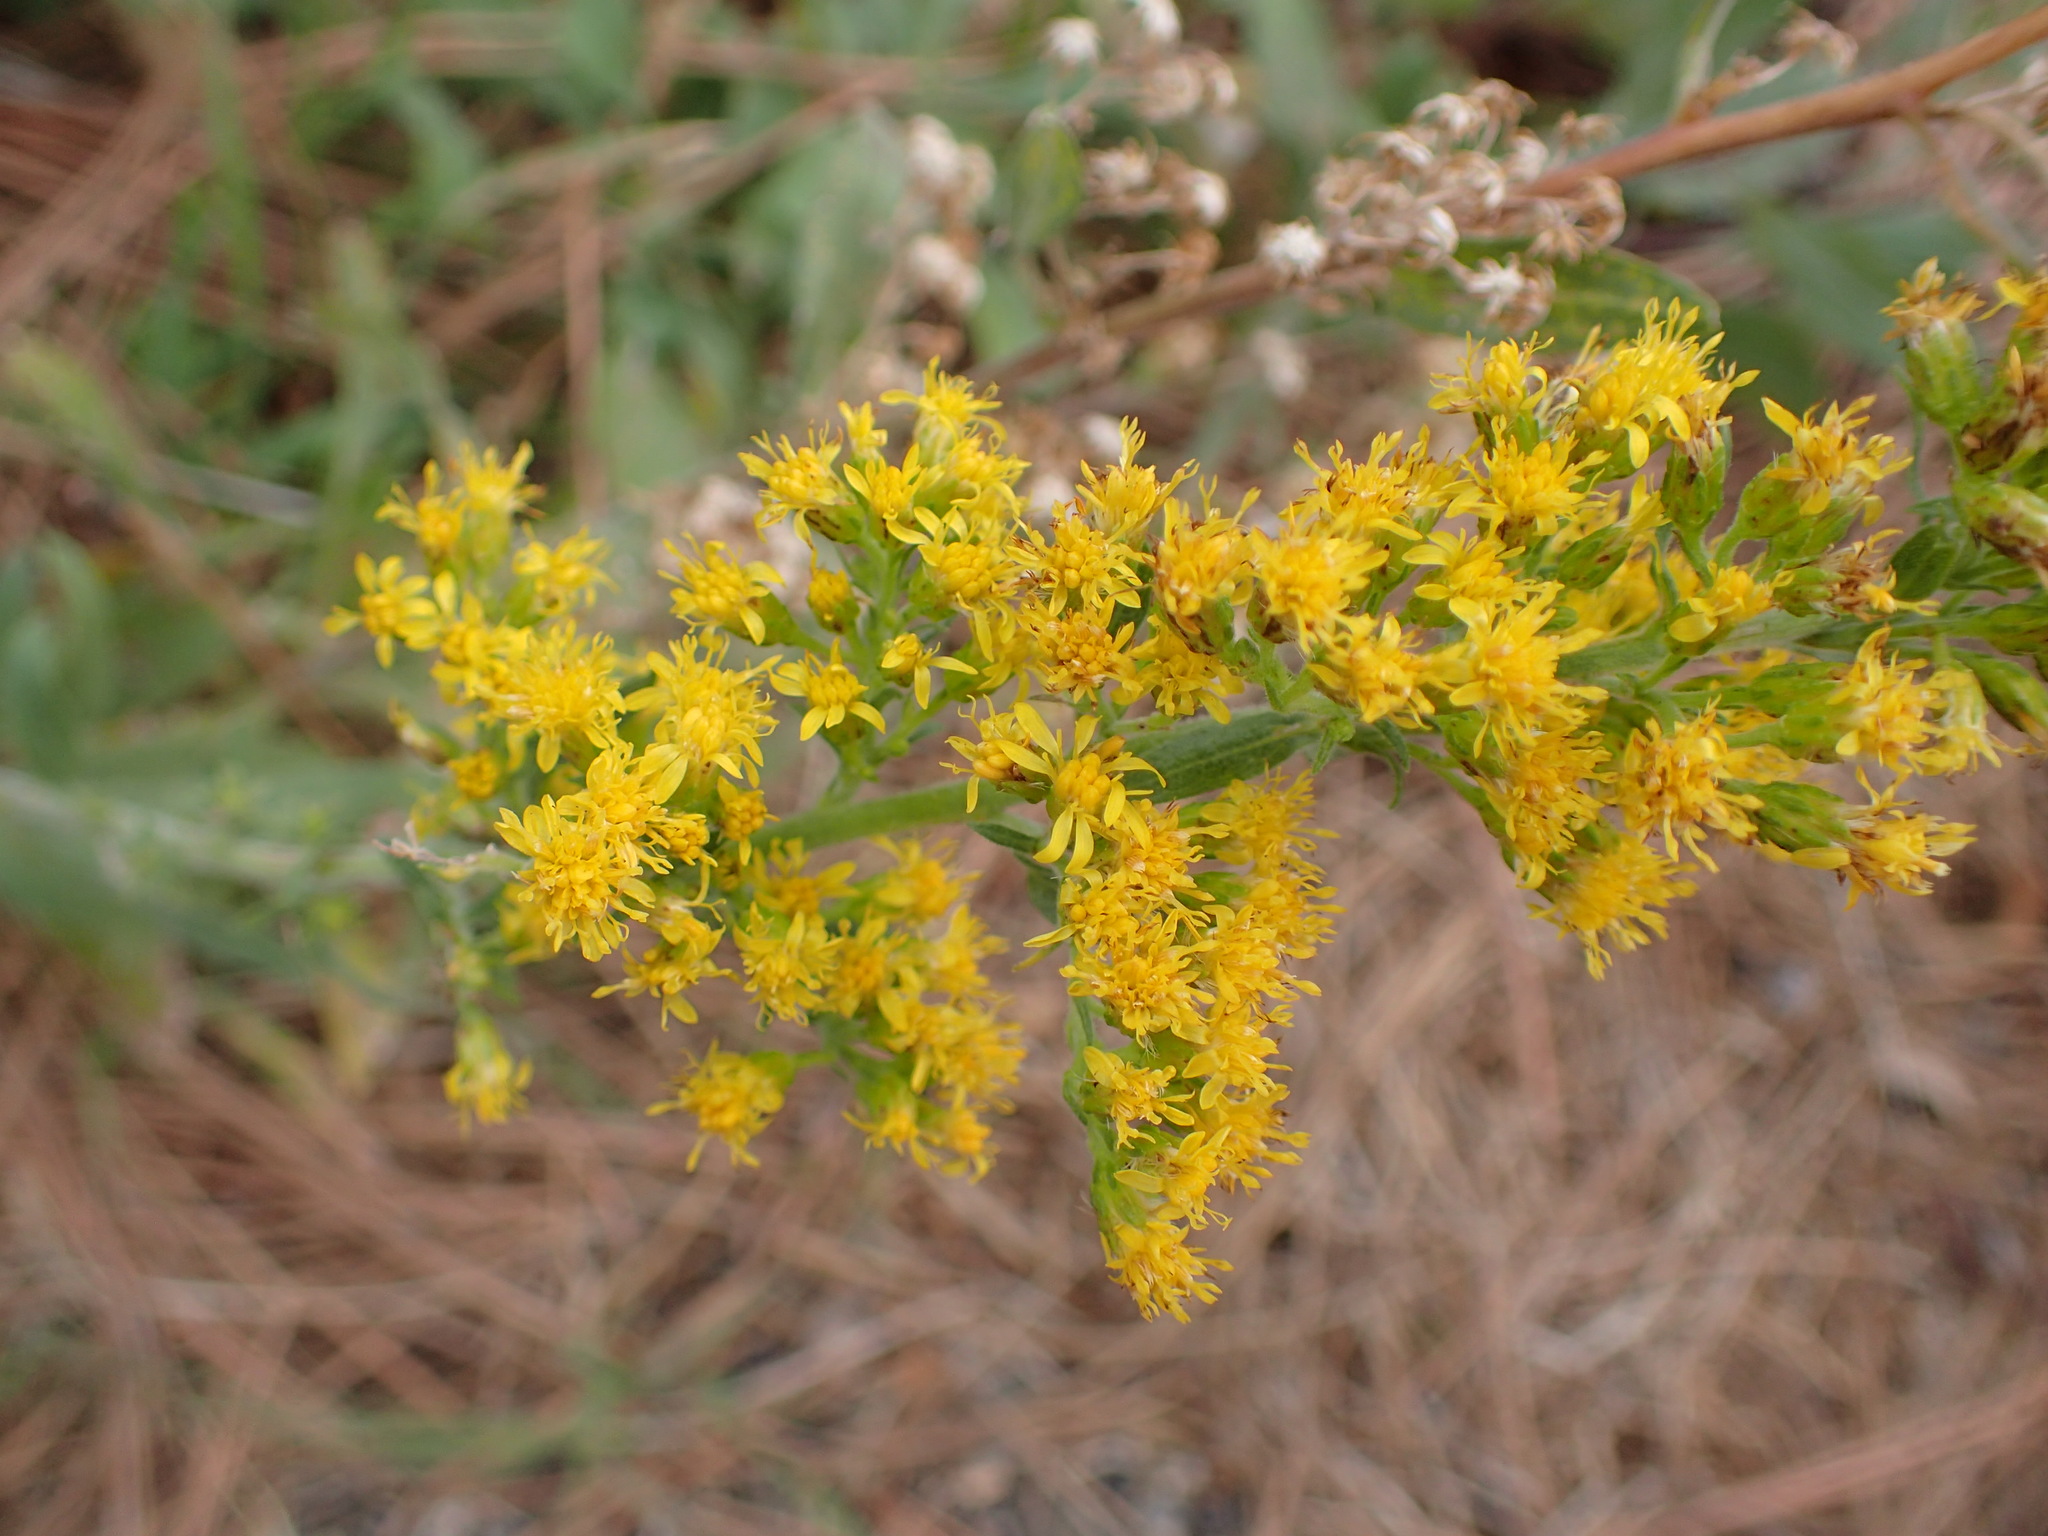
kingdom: Plantae
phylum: Tracheophyta
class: Magnoliopsida
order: Asterales
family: Asteraceae
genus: Solidago
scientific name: Solidago velutina
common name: Three-nerve goldenrod
